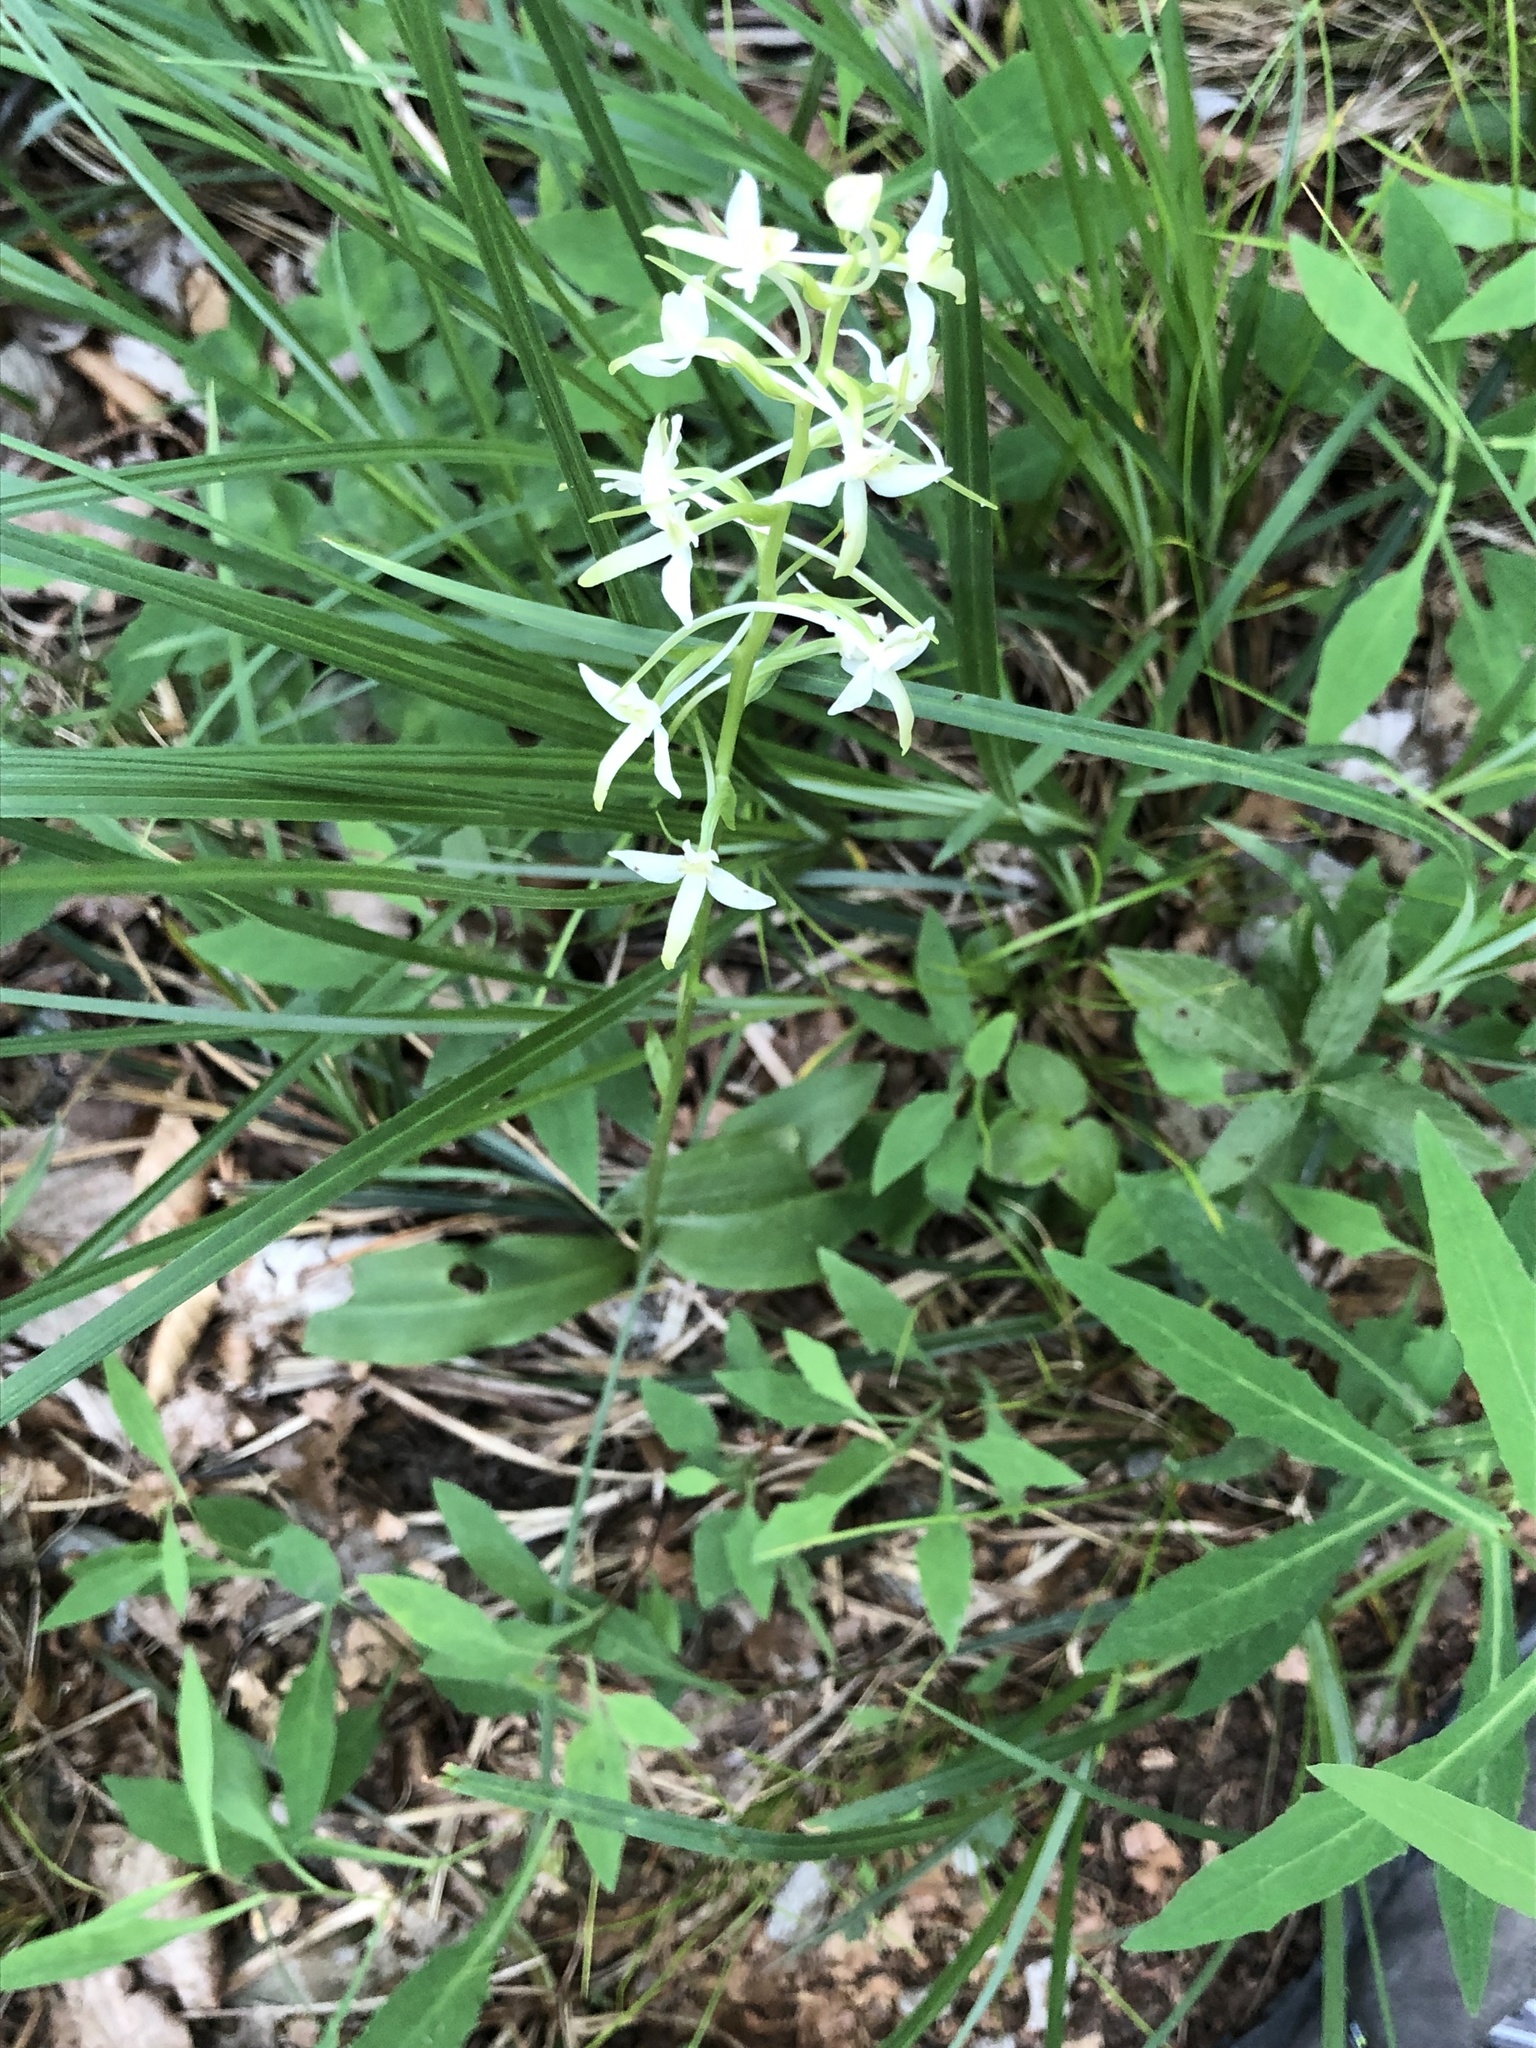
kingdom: Plantae
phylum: Tracheophyta
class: Liliopsida
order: Asparagales
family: Orchidaceae
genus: Platanthera
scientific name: Platanthera bifolia
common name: Lesser butterfly-orchid
